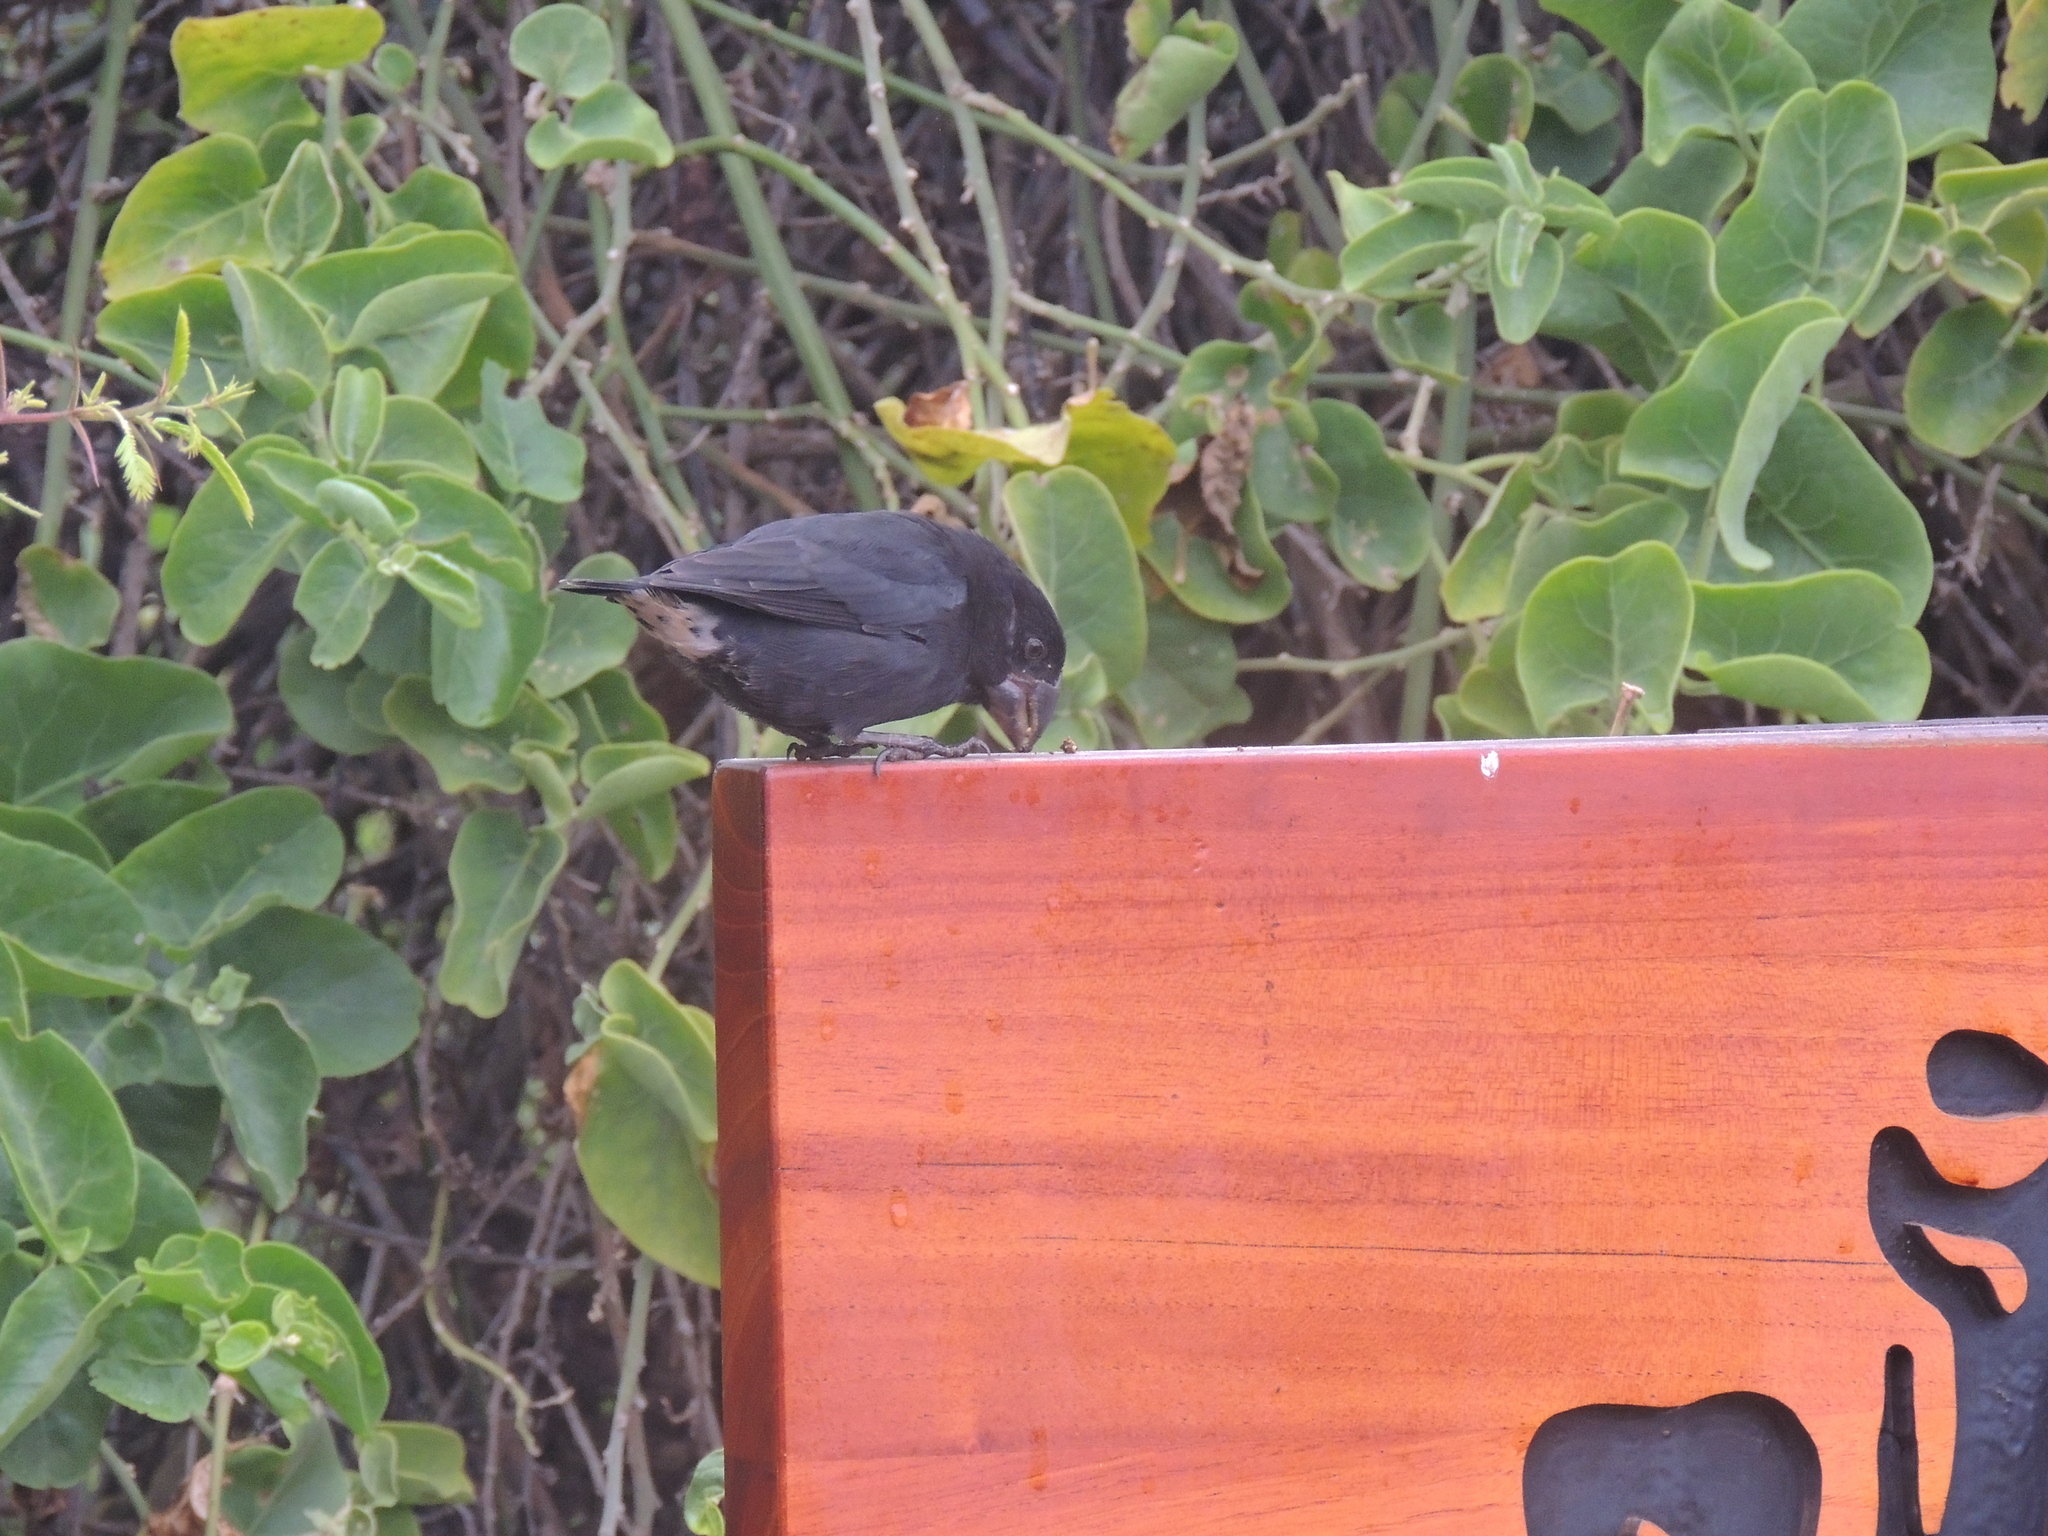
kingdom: Animalia
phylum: Chordata
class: Aves
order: Passeriformes
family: Thraupidae
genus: Geospiza
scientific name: Geospiza fortis
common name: Medium ground finch
